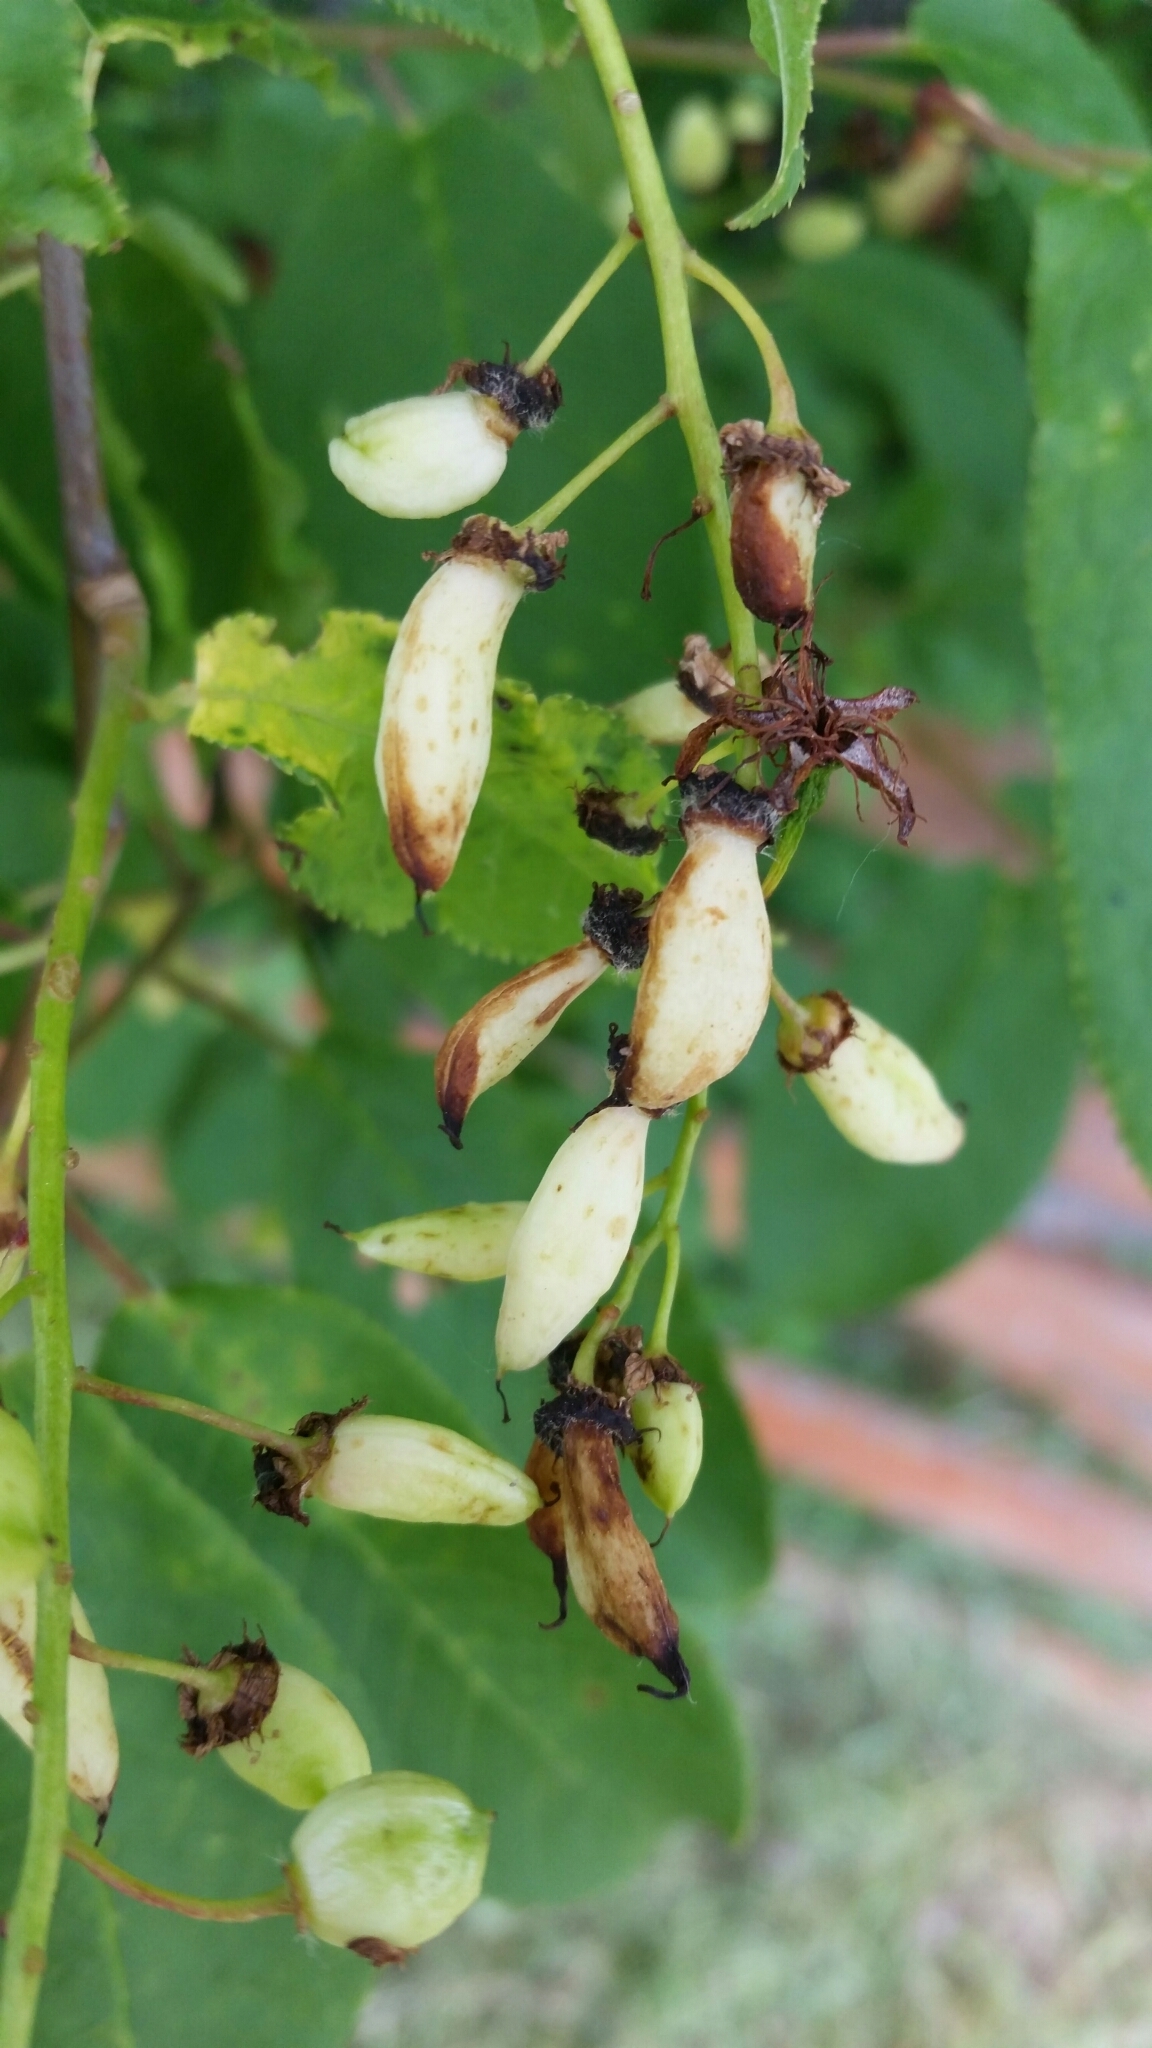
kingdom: Fungi
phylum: Ascomycota
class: Taphrinomycetes
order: Taphrinales
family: Taphrinaceae
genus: Taphrina
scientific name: Taphrina padi
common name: Bird cherry pocket
